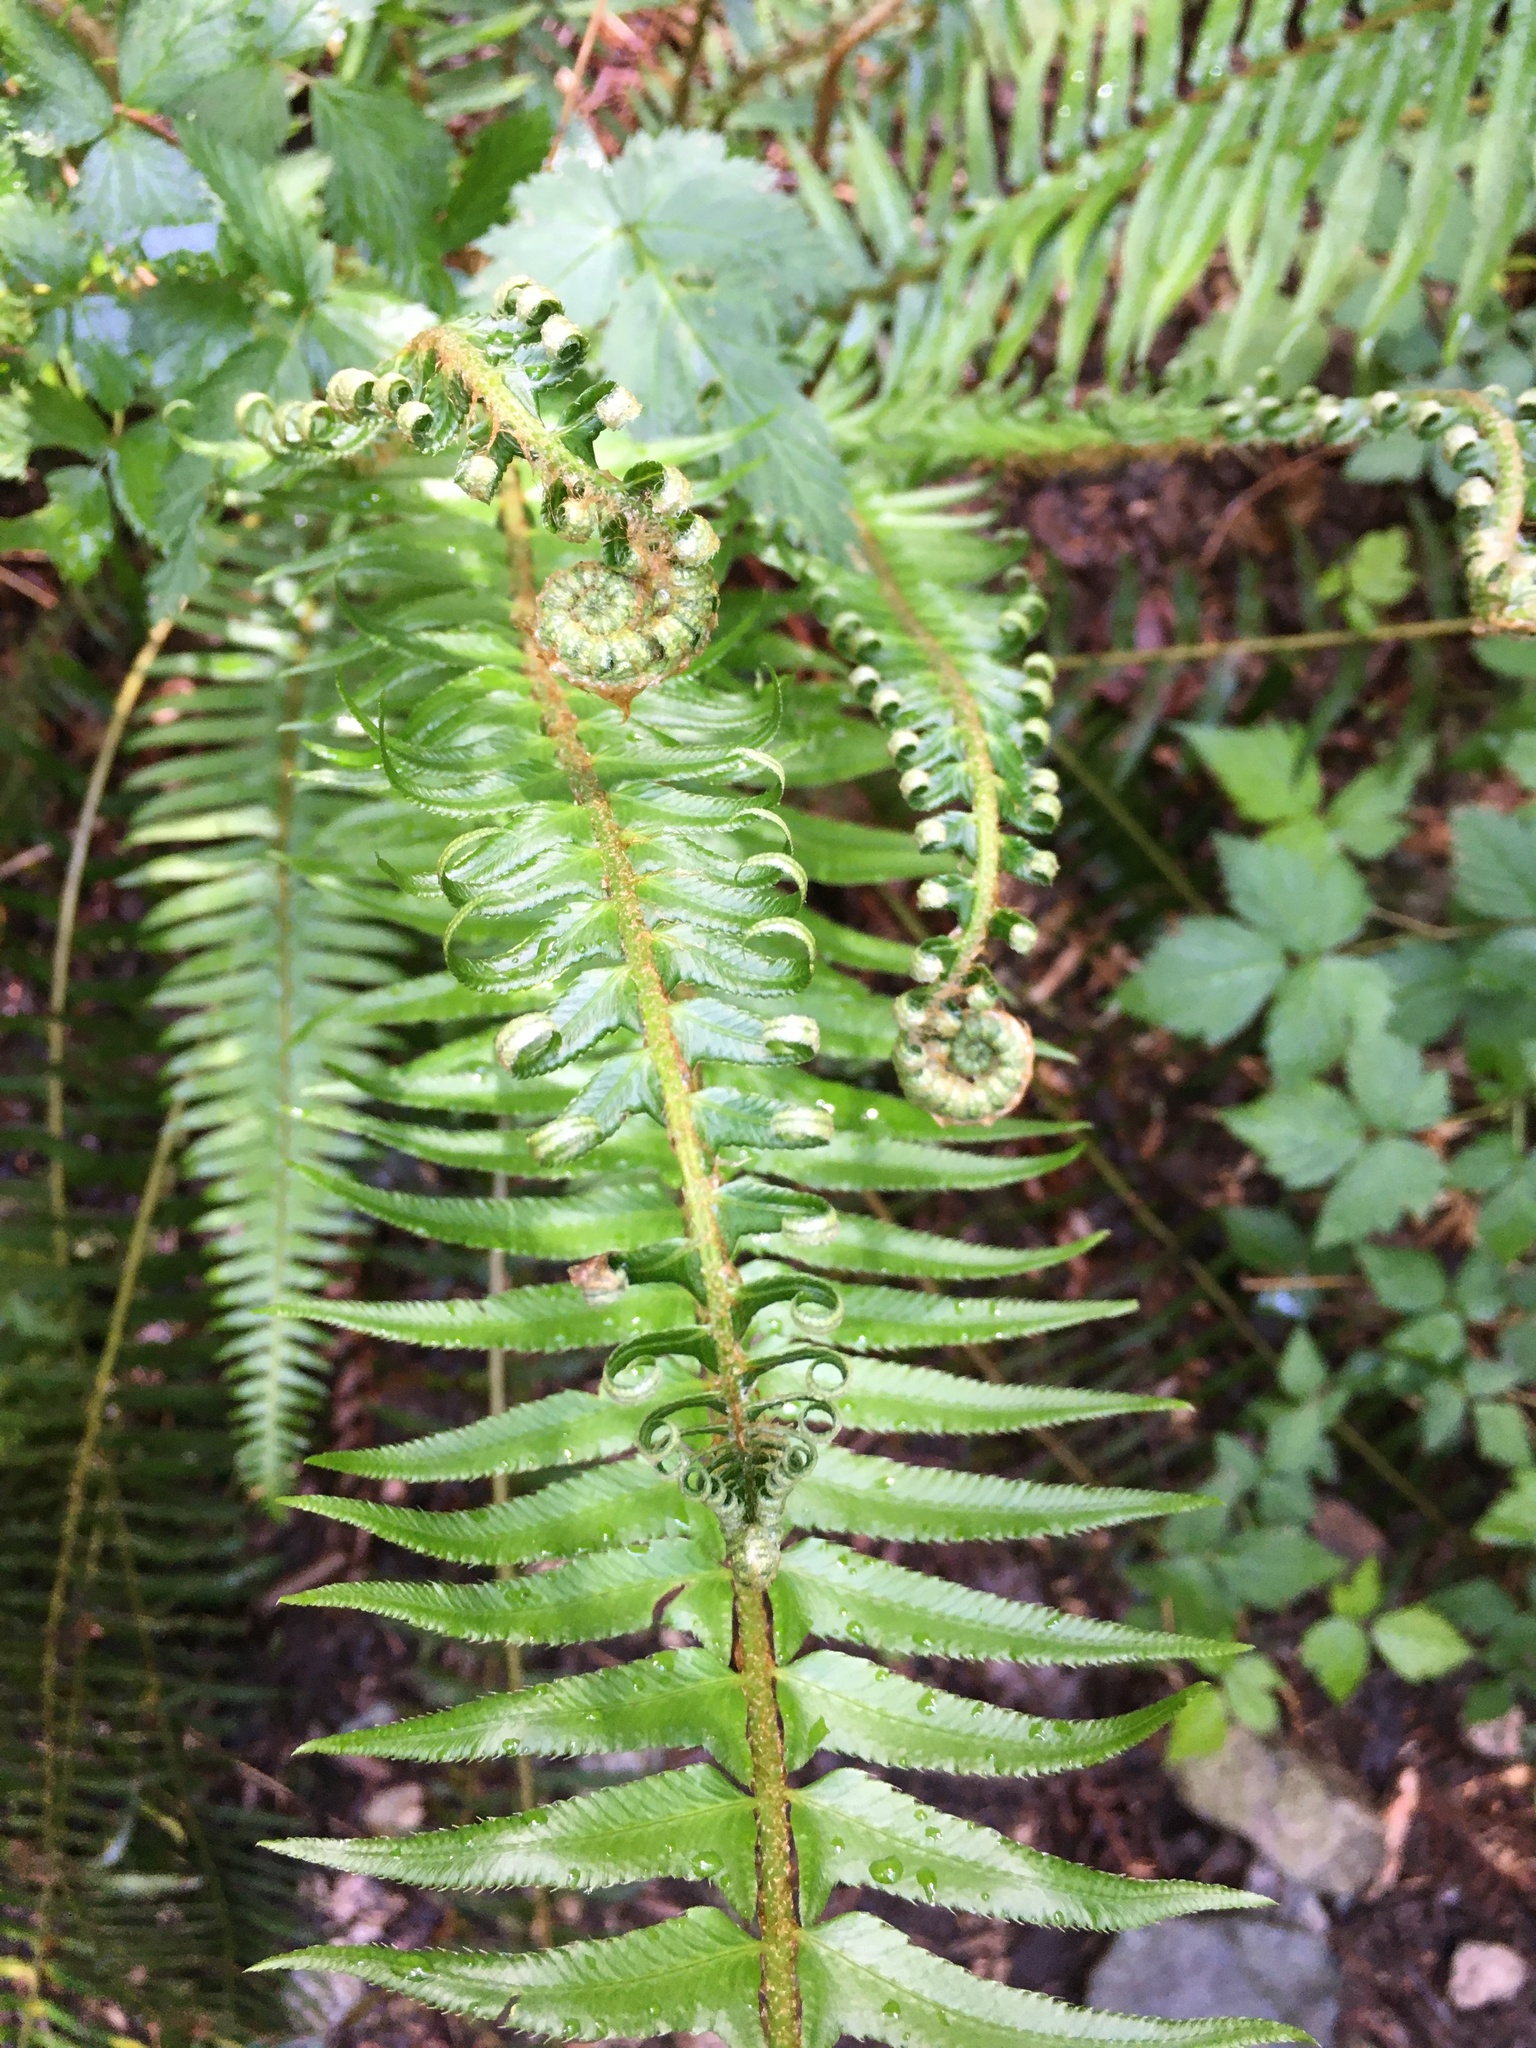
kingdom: Plantae
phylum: Tracheophyta
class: Polypodiopsida
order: Polypodiales
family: Dryopteridaceae
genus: Polystichum
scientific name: Polystichum munitum
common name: Western sword-fern
